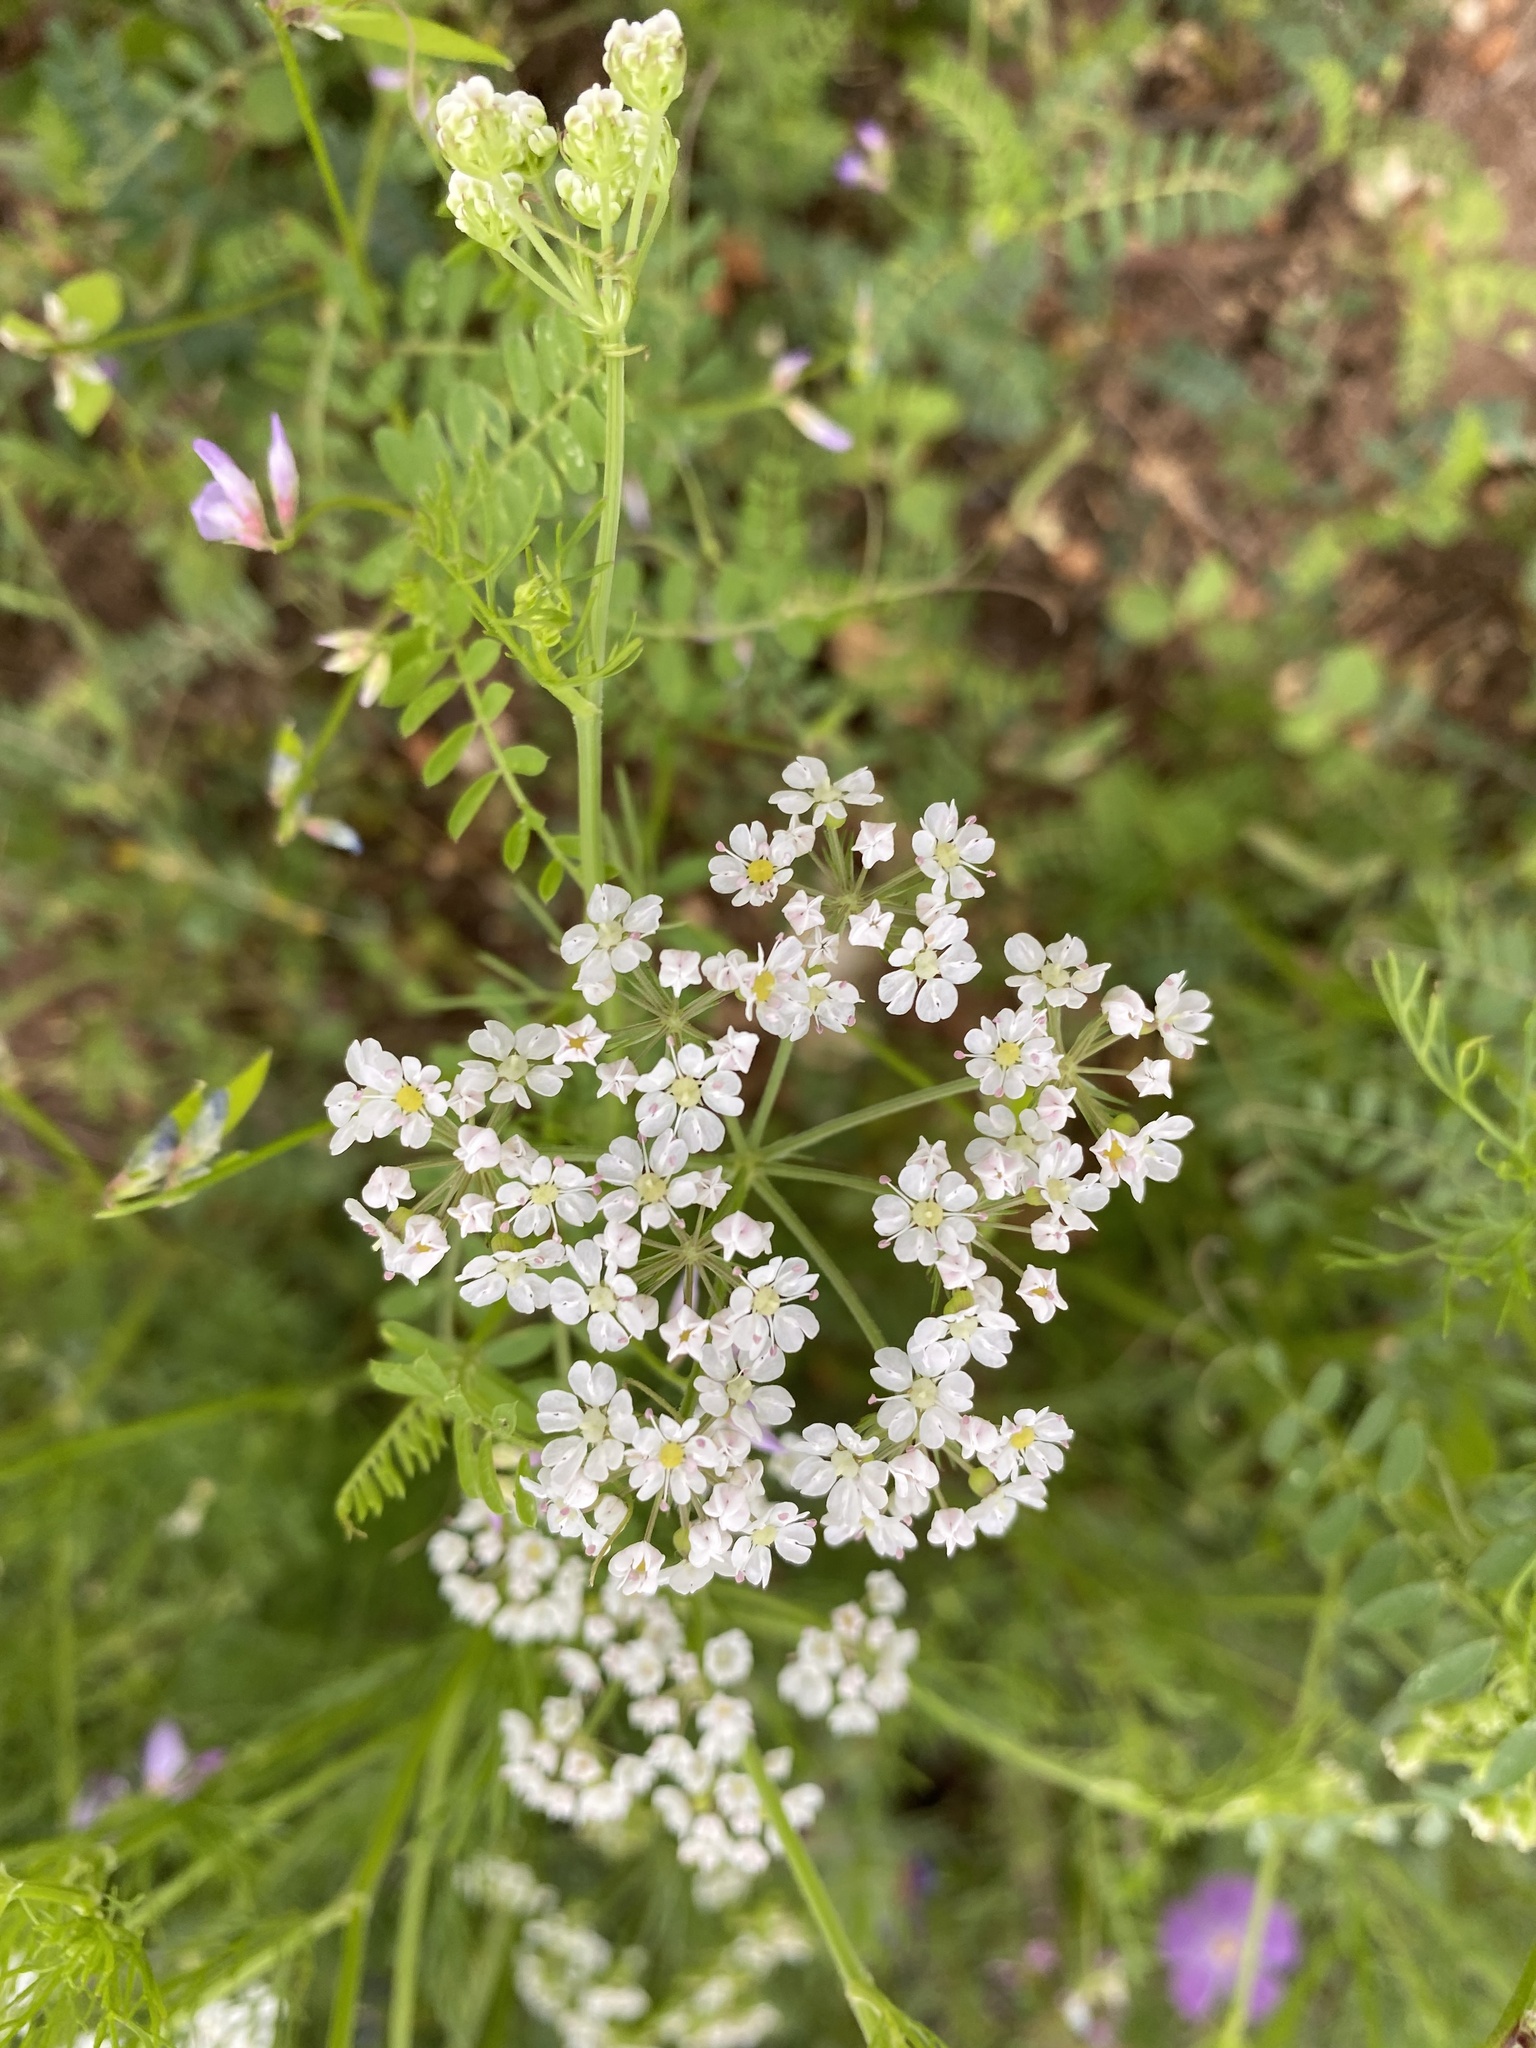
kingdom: Plantae
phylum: Tracheophyta
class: Magnoliopsida
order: Apiales
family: Apiaceae
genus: Atrema
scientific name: Atrema americanum
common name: Prairie-bishop
